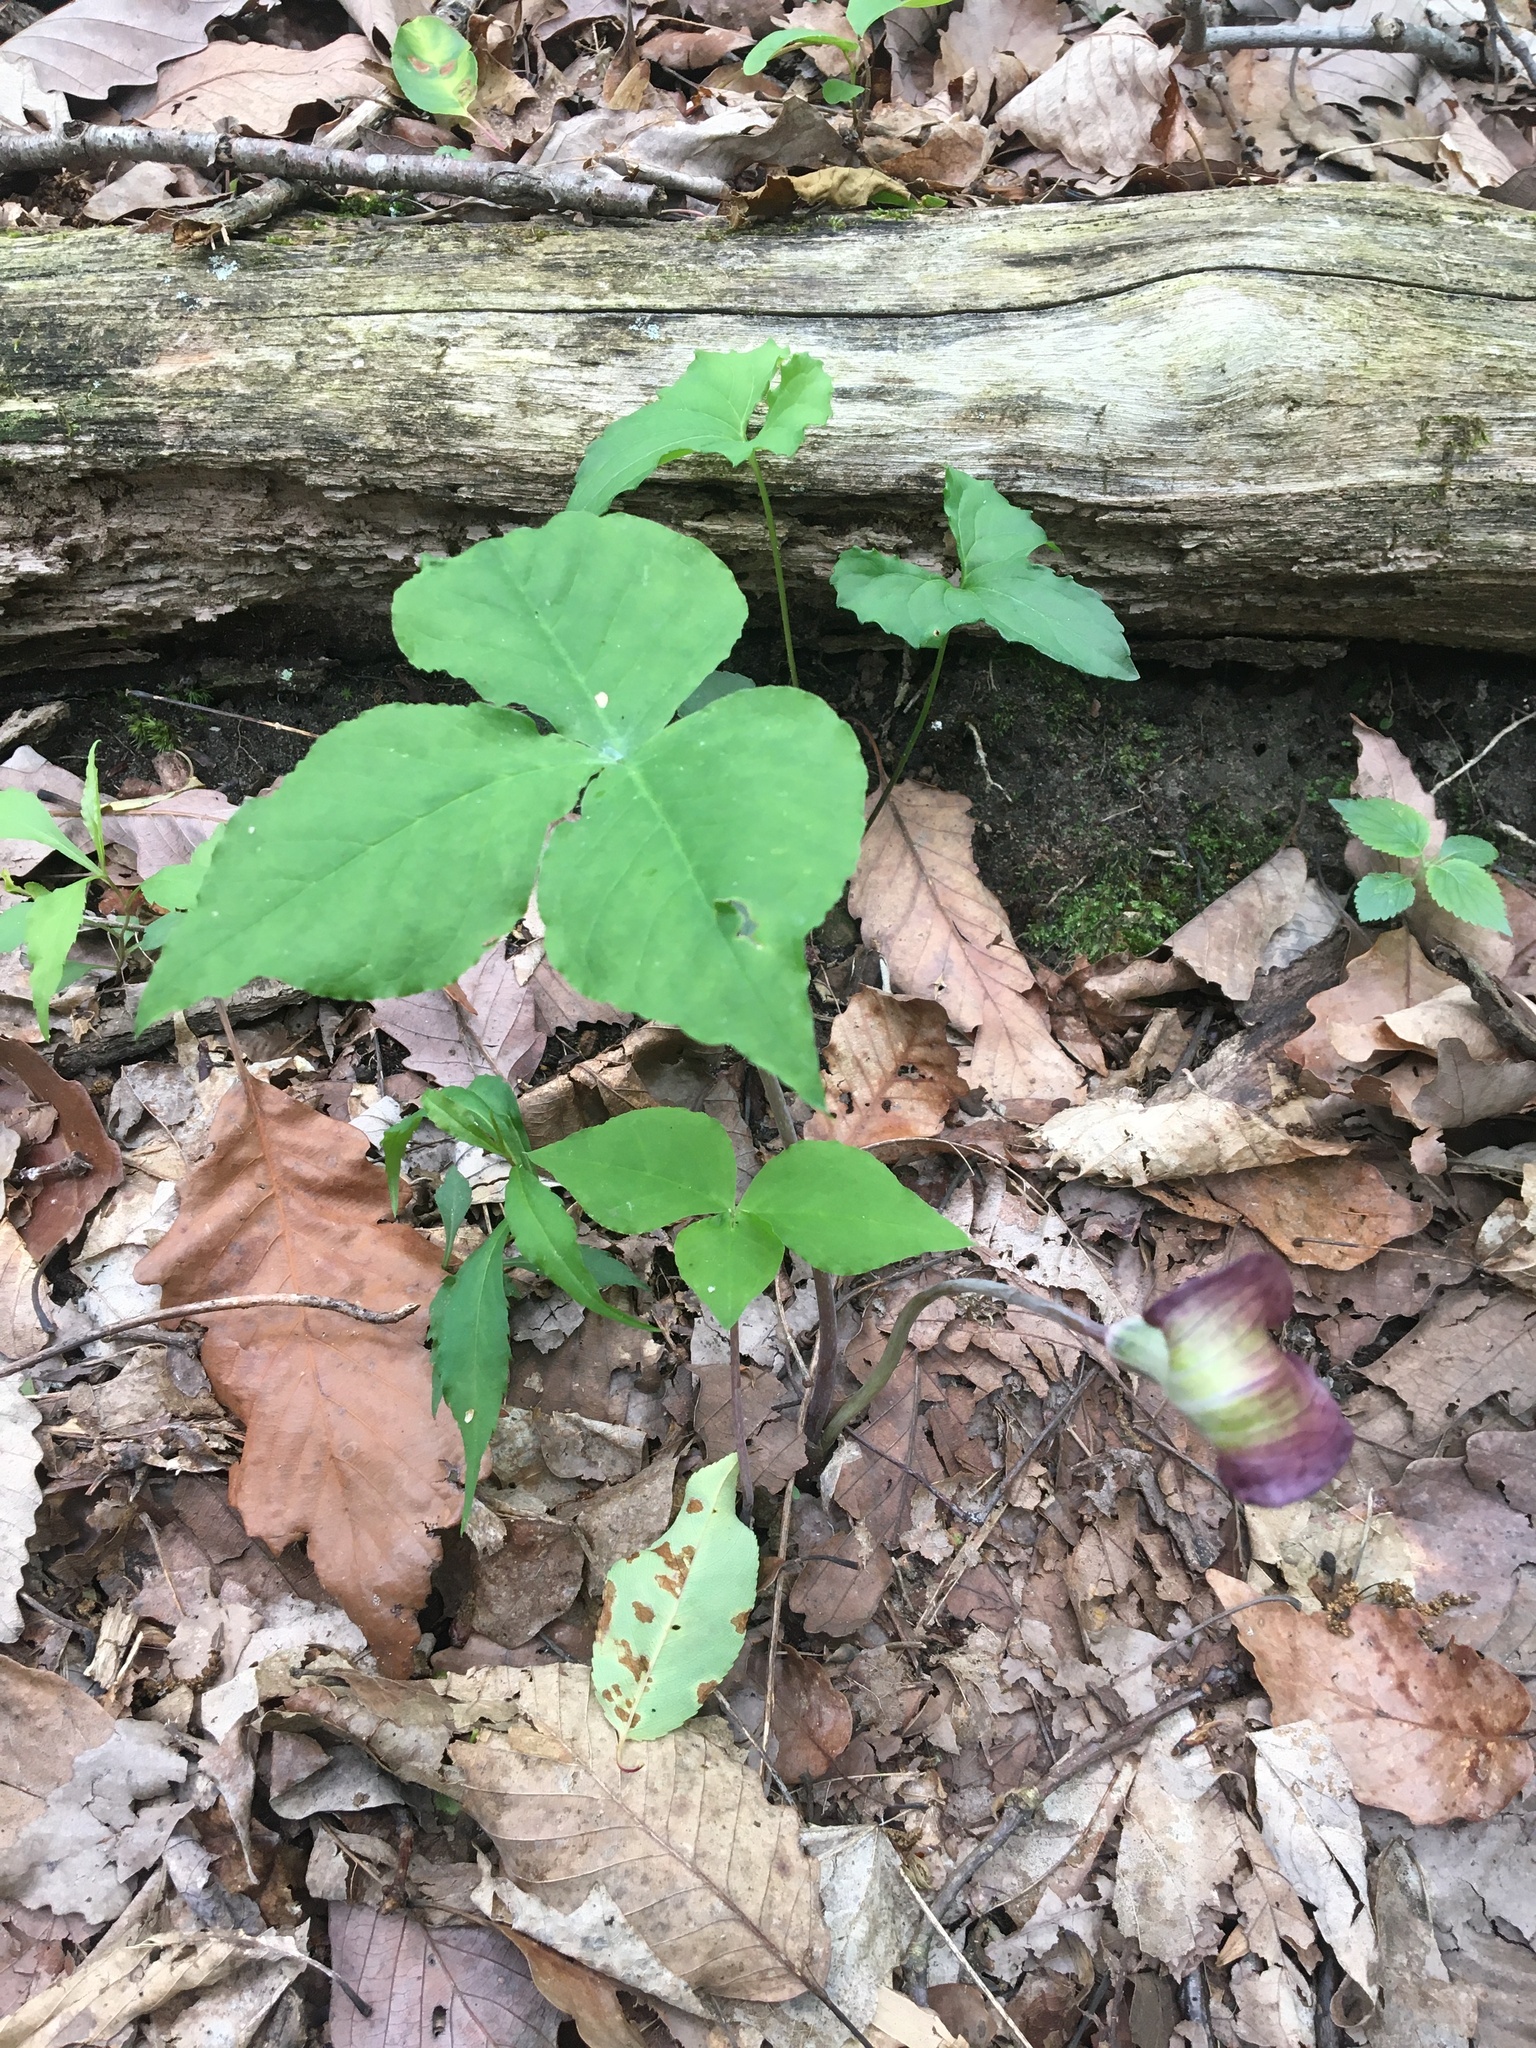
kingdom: Plantae
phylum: Tracheophyta
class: Liliopsida
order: Alismatales
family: Araceae
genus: Arisaema
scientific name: Arisaema triphyllum
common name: Jack-in-the-pulpit
